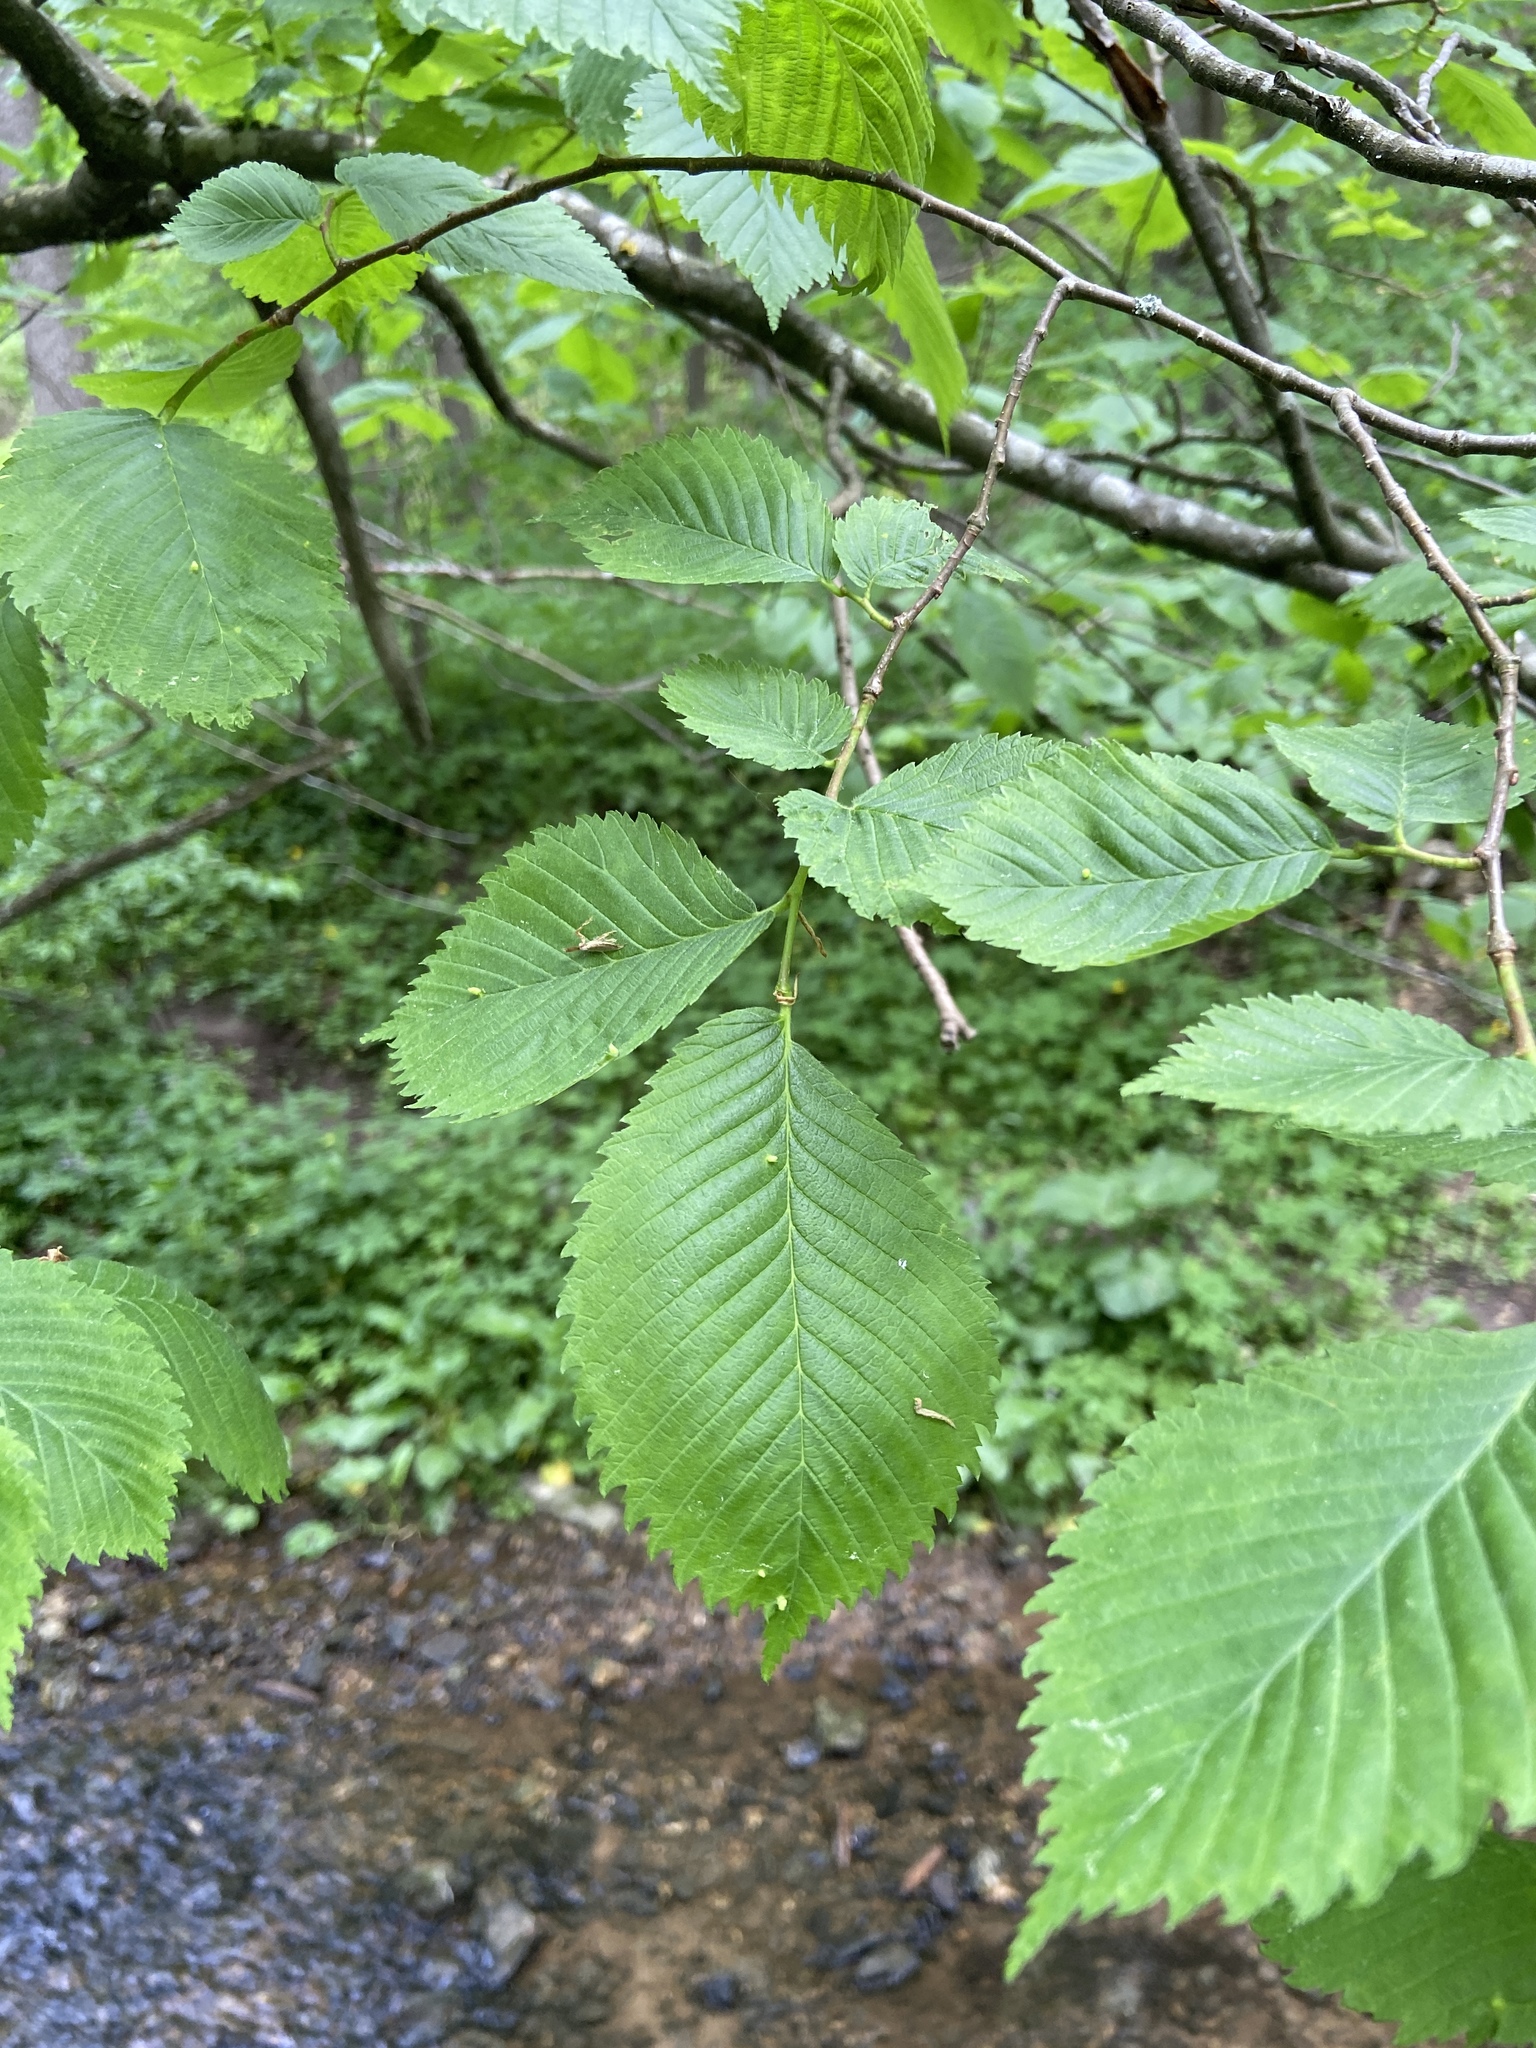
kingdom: Plantae
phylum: Tracheophyta
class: Magnoliopsida
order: Rosales
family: Ulmaceae
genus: Ulmus
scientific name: Ulmus laevis
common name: European white-elm
